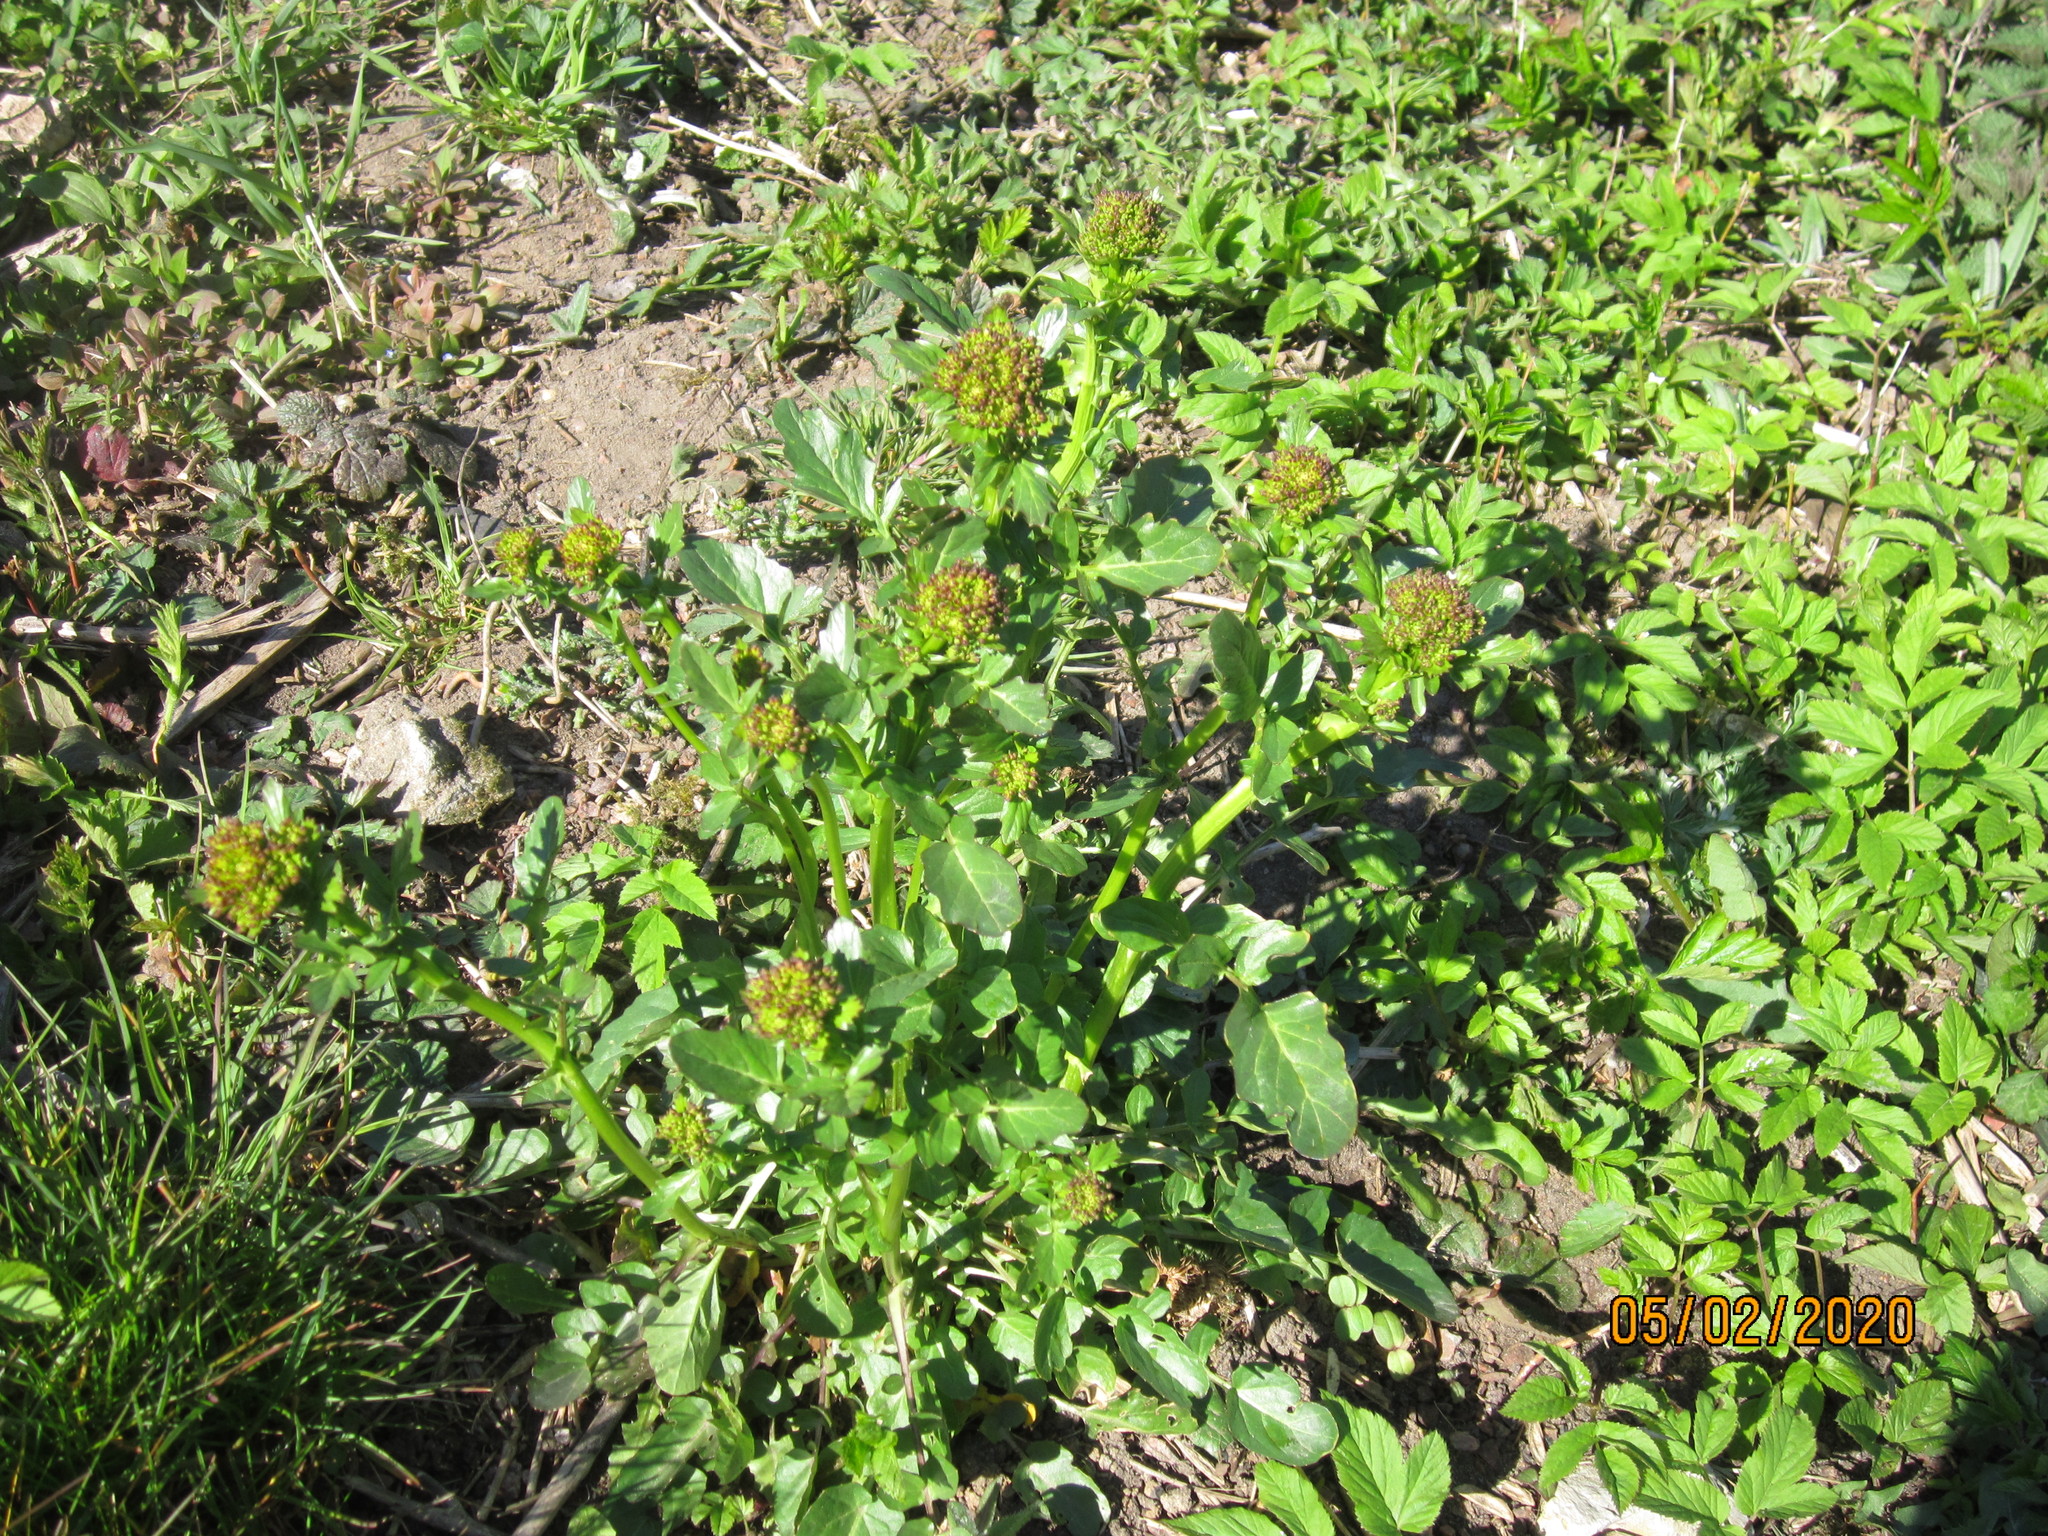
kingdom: Plantae
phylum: Tracheophyta
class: Magnoliopsida
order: Brassicales
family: Brassicaceae
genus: Barbarea
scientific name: Barbarea vulgaris
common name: Cressy-greens
